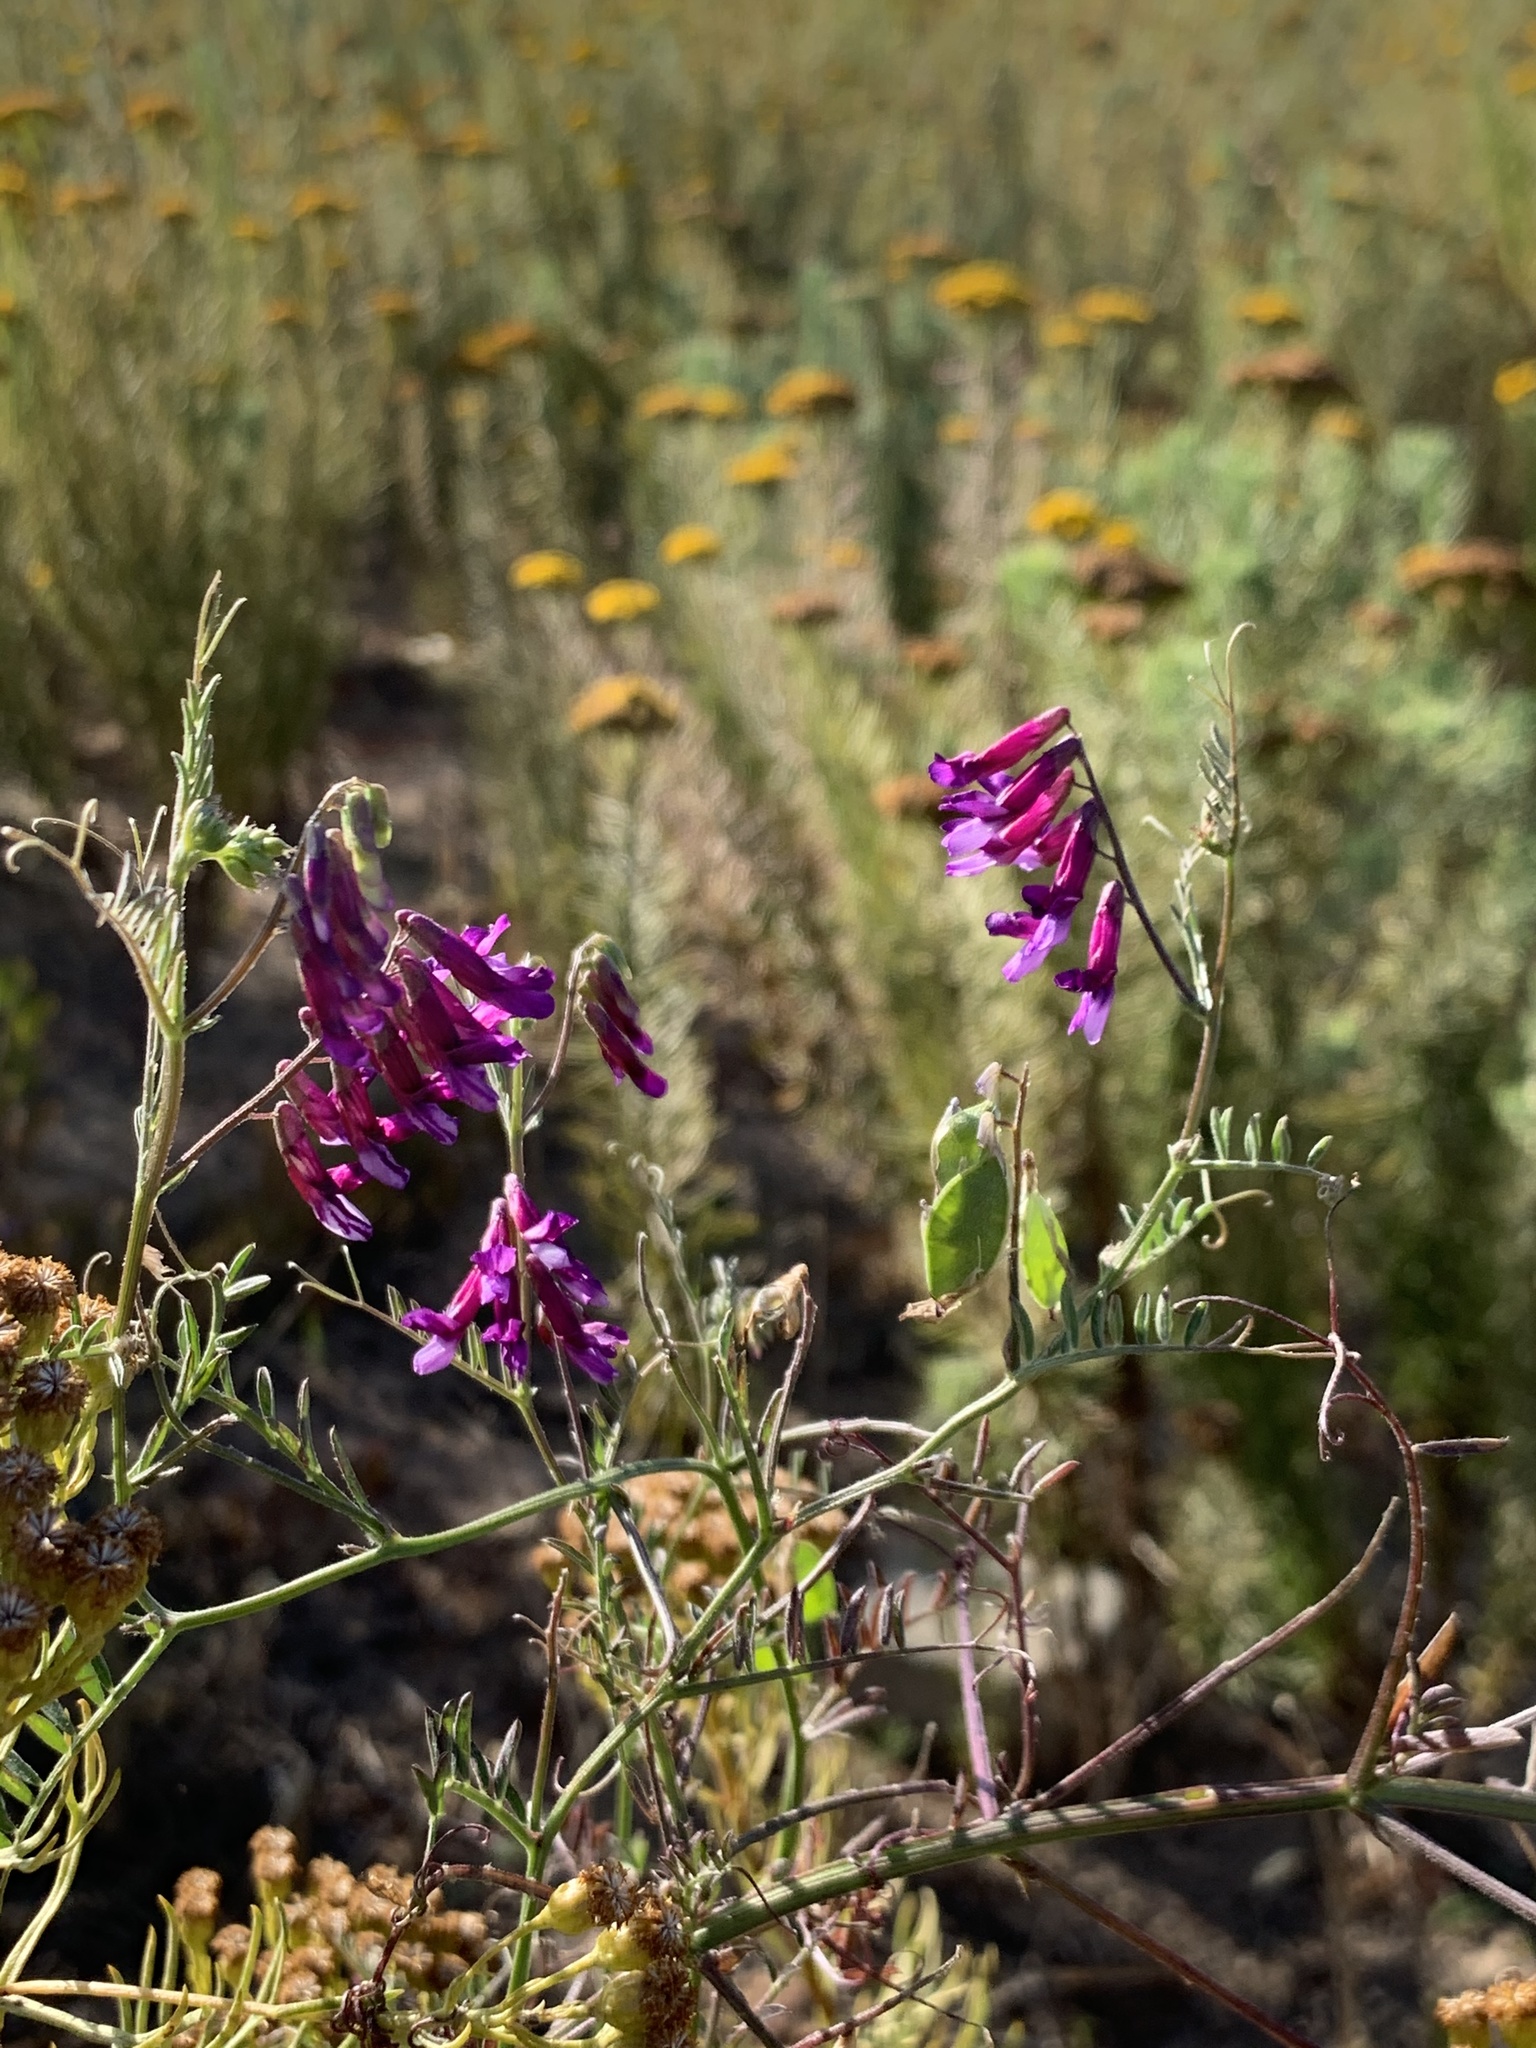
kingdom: Plantae
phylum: Tracheophyta
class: Magnoliopsida
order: Fabales
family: Fabaceae
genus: Vicia
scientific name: Vicia eriocarpa
